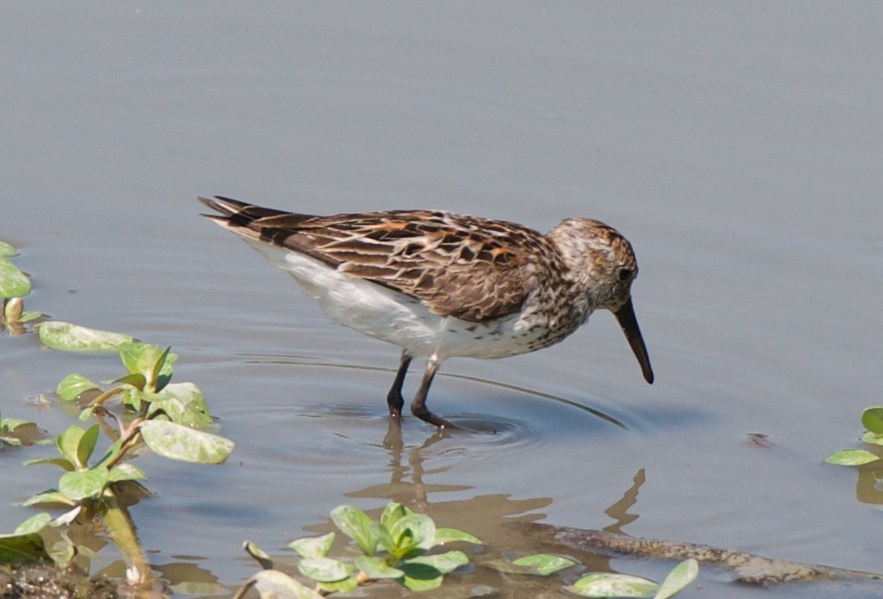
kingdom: Animalia
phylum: Chordata
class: Aves
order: Charadriiformes
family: Scolopacidae
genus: Calidris
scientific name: Calidris mauri
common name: Western sandpiper
